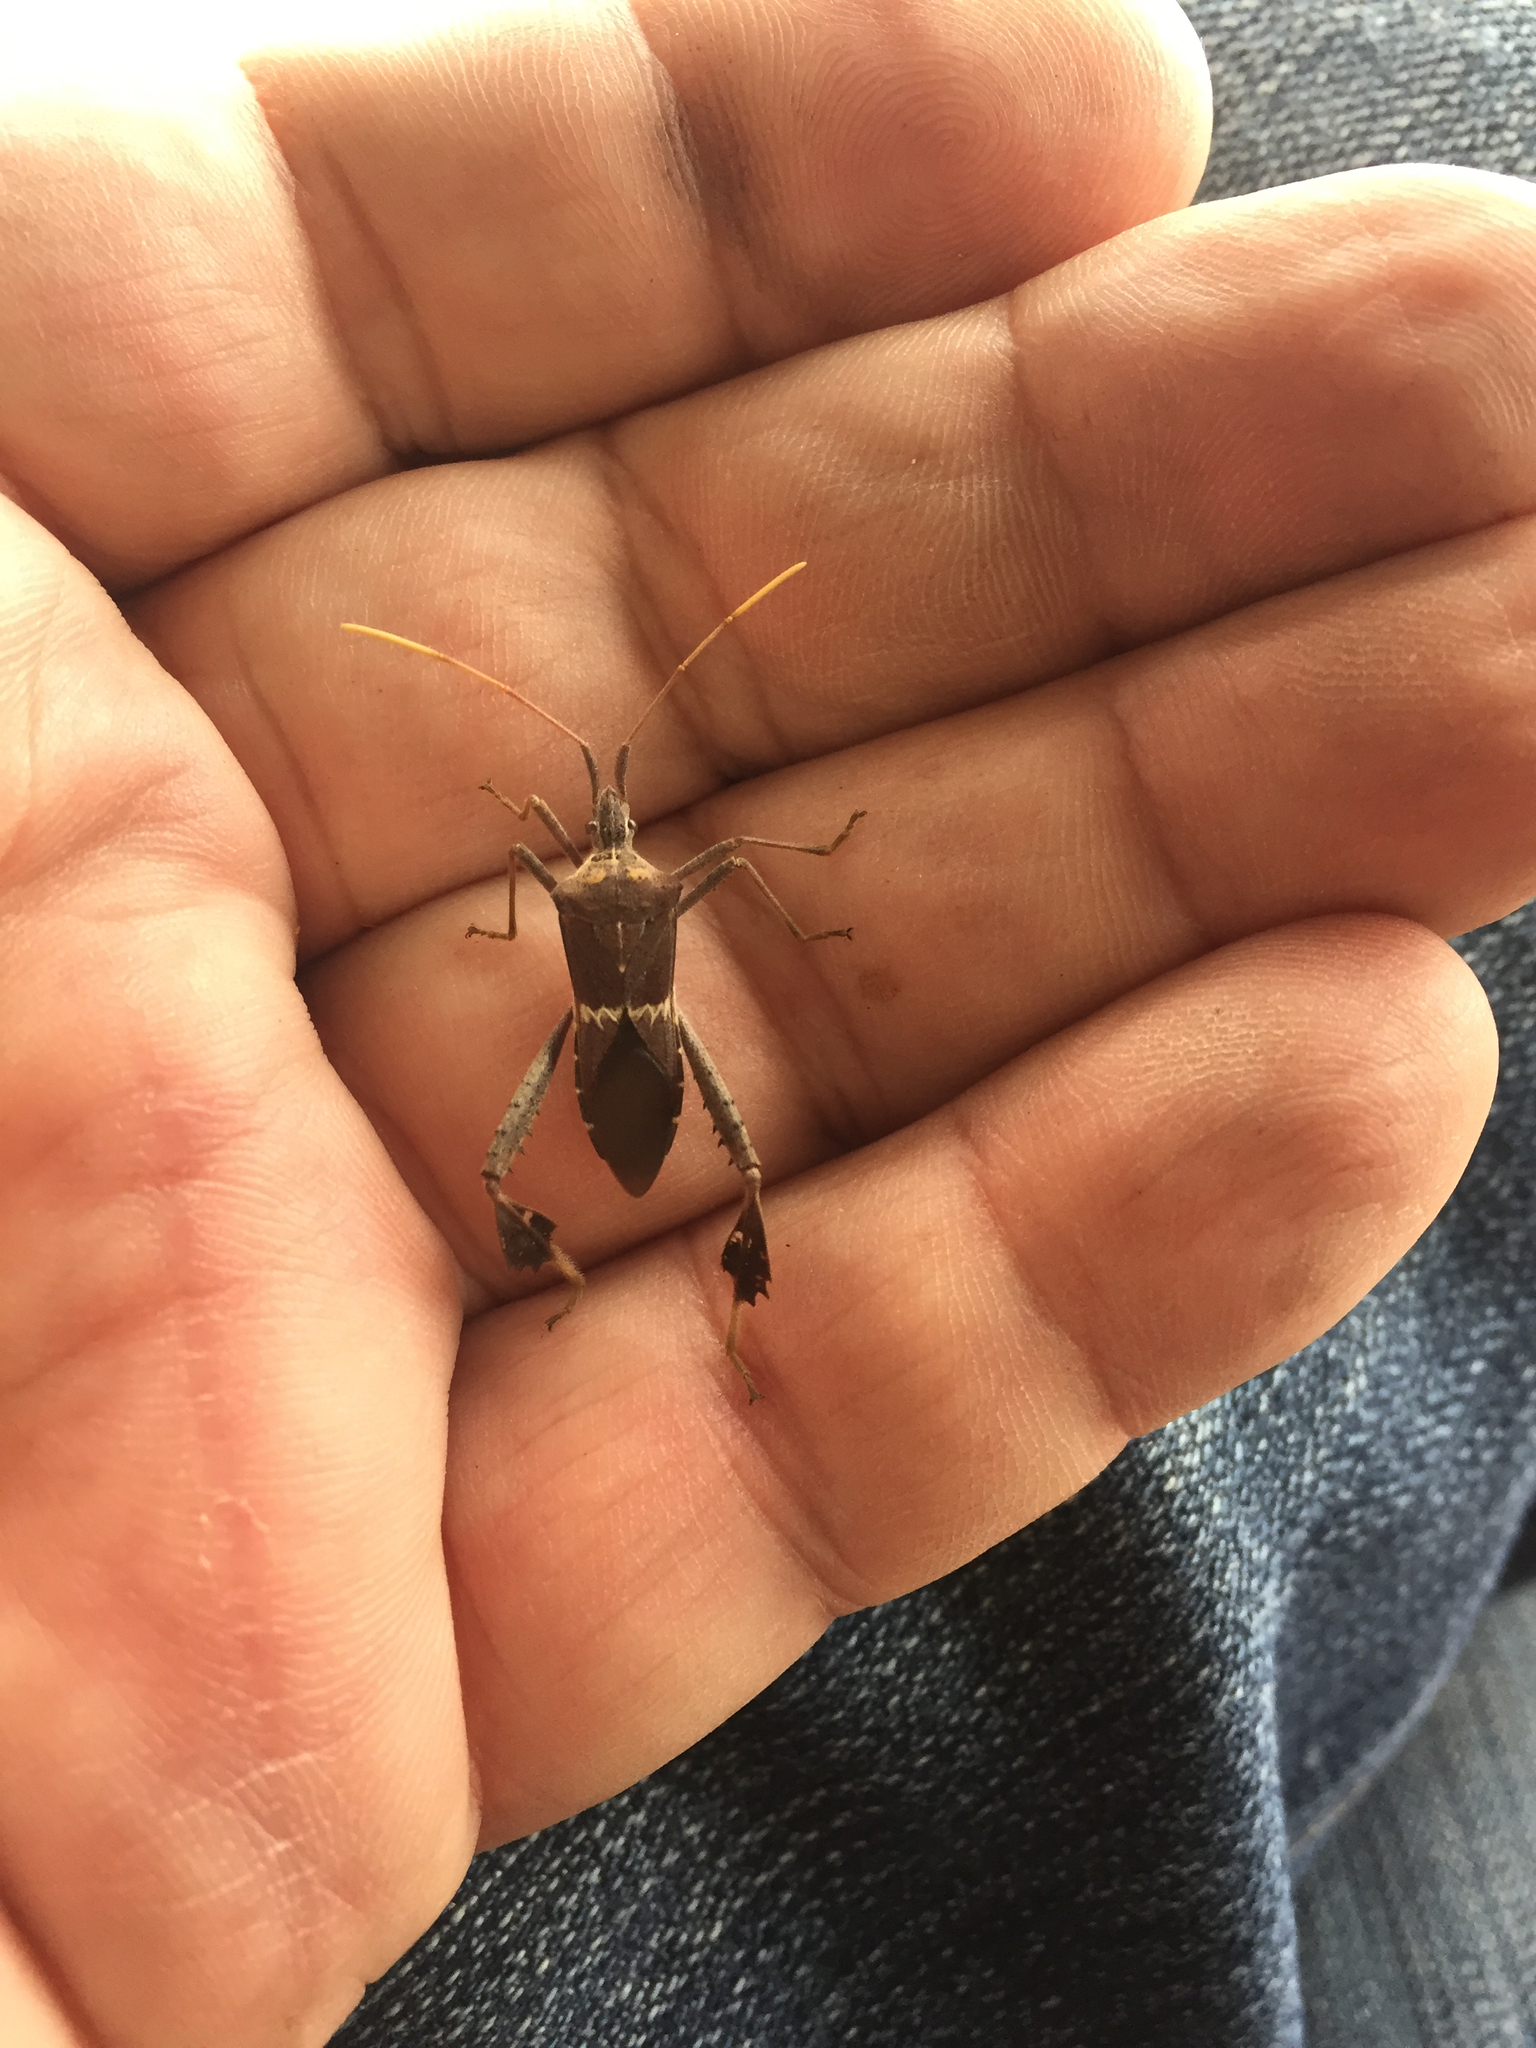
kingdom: Animalia
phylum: Arthropoda
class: Insecta
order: Hemiptera
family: Coreidae
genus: Leptoglossus
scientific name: Leptoglossus zonatus
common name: Large-legged bug
